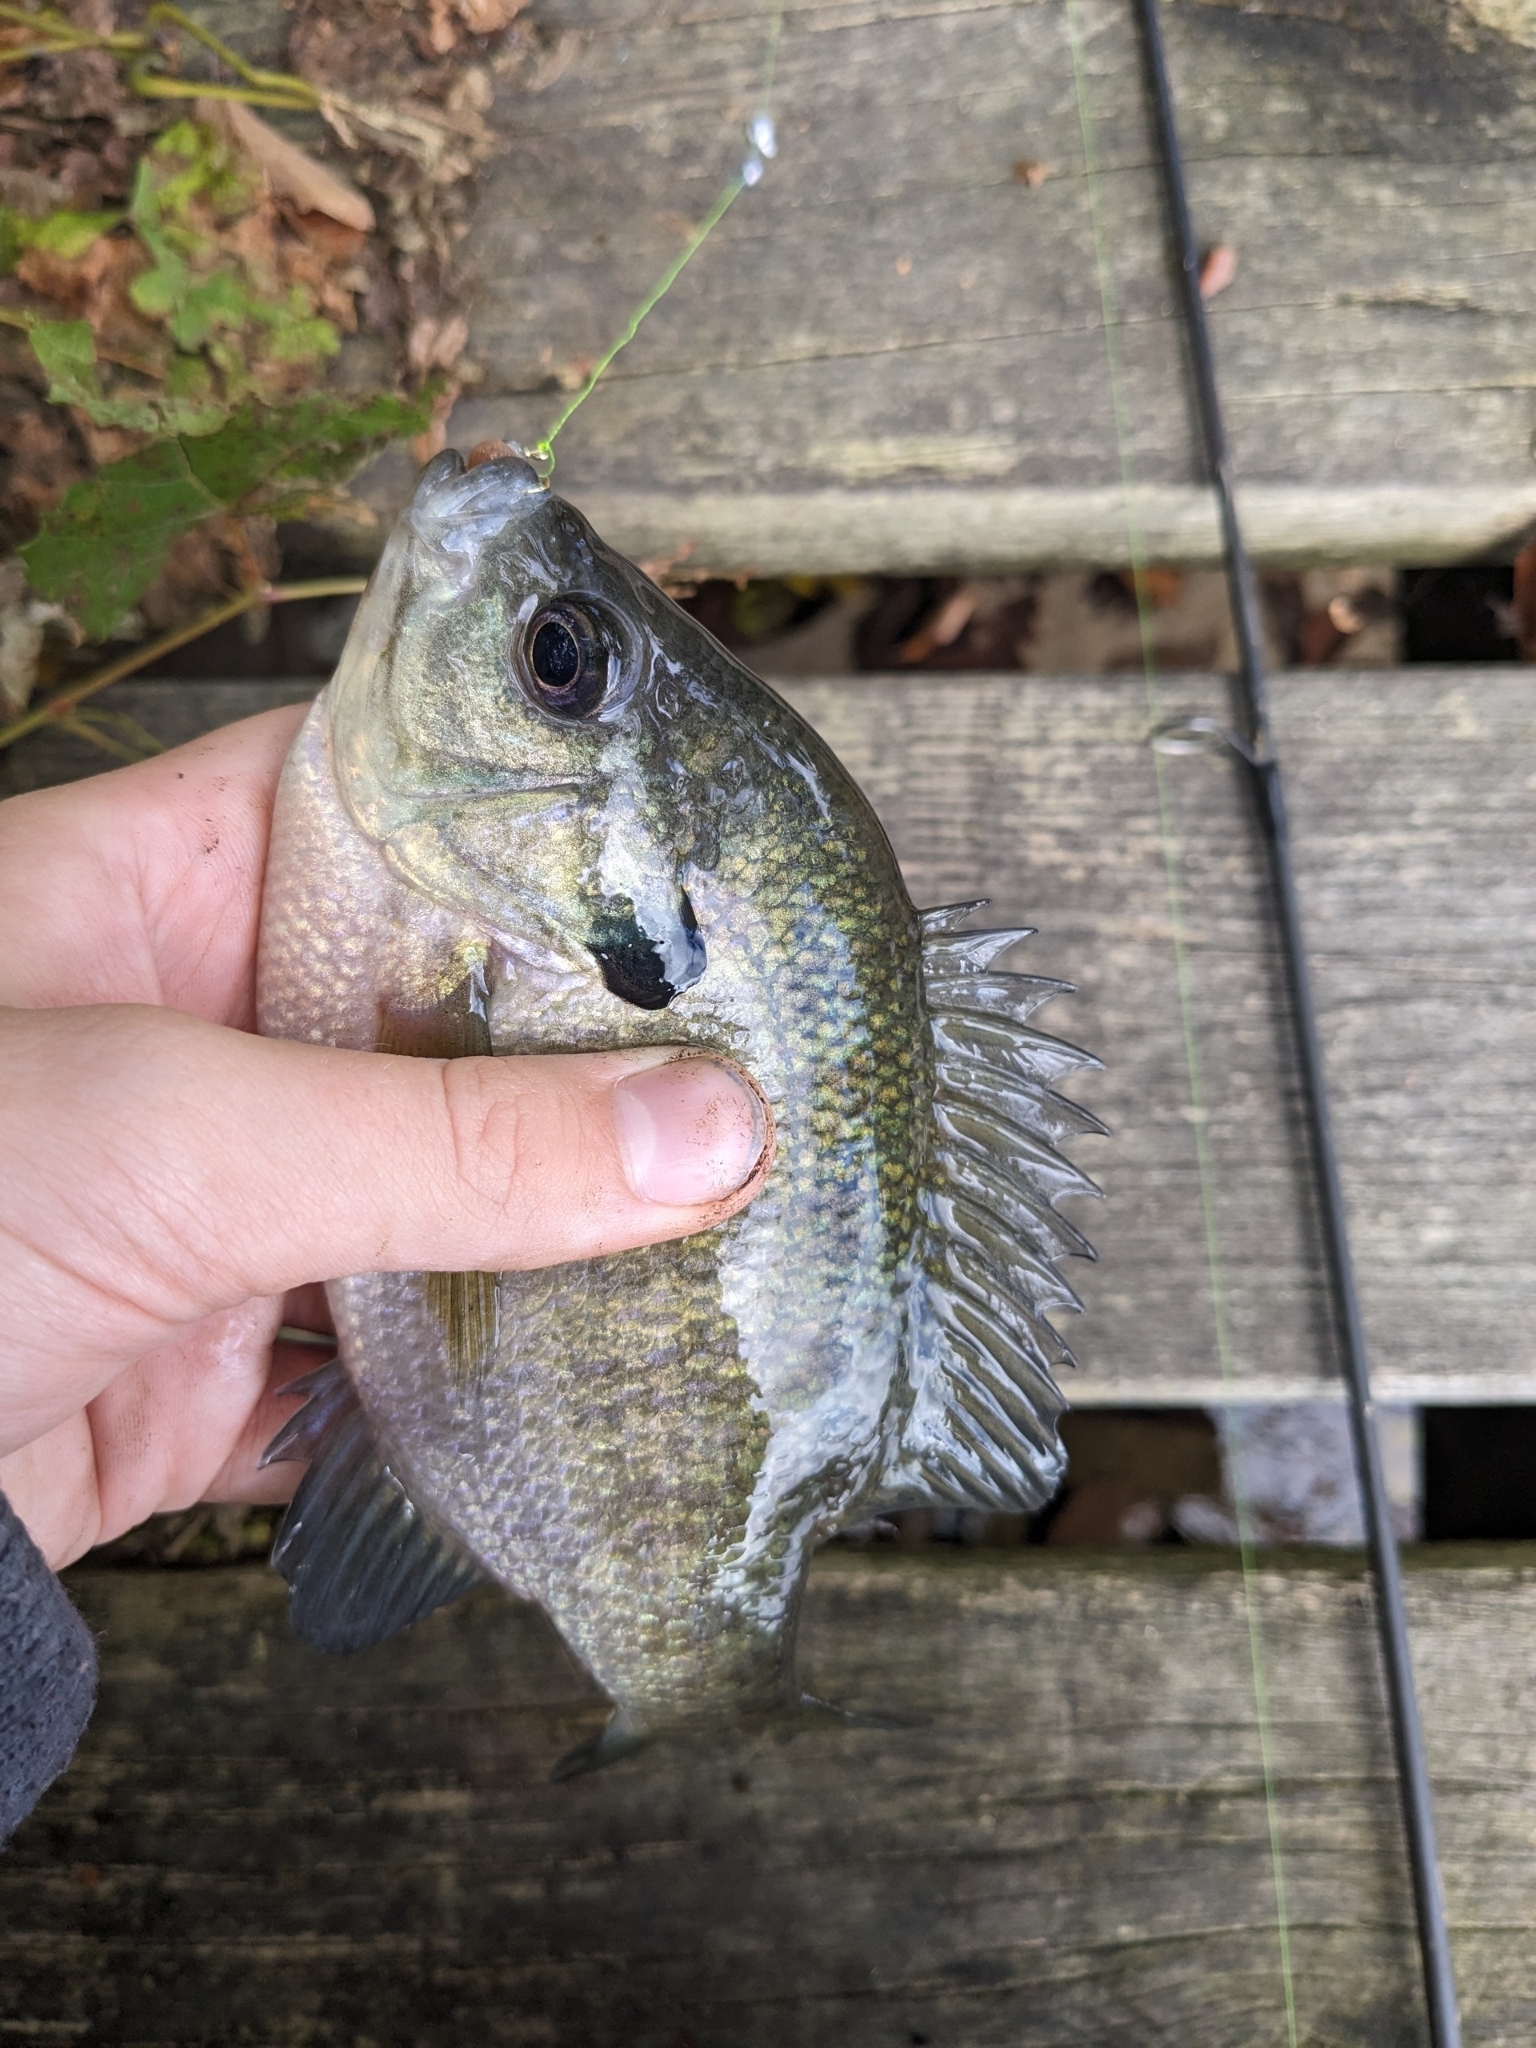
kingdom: Animalia
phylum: Chordata
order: Perciformes
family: Centrarchidae
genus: Lepomis
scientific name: Lepomis macrochirus
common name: Bluegill
